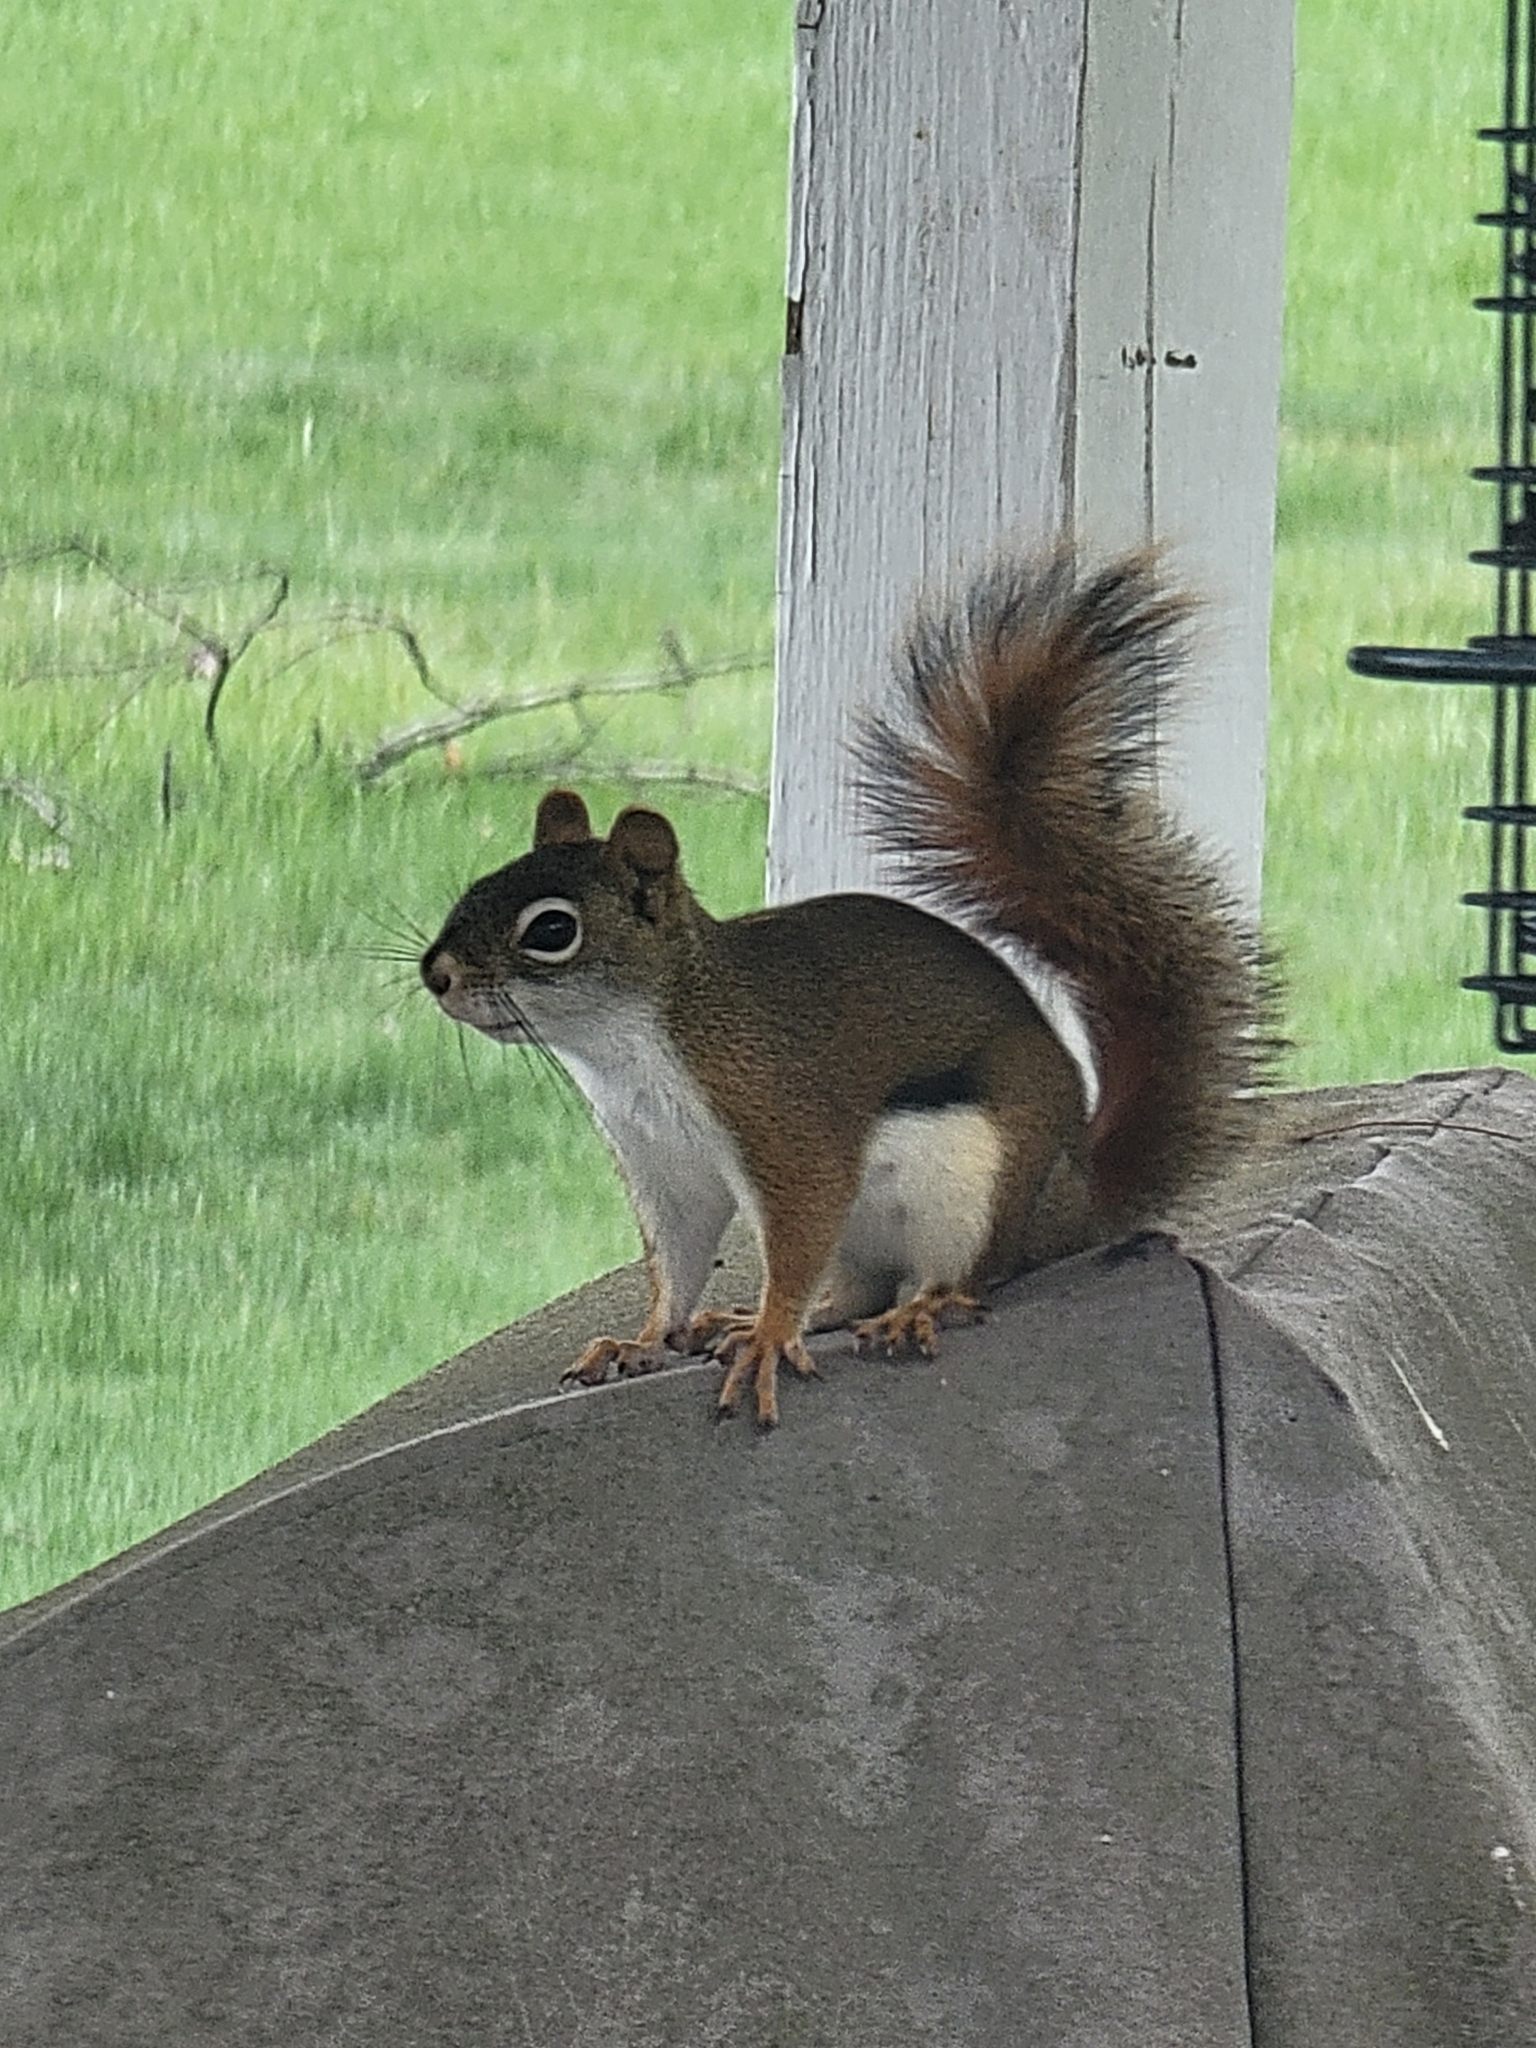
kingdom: Animalia
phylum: Chordata
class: Mammalia
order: Rodentia
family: Sciuridae
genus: Tamiasciurus
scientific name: Tamiasciurus hudsonicus
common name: Red squirrel
